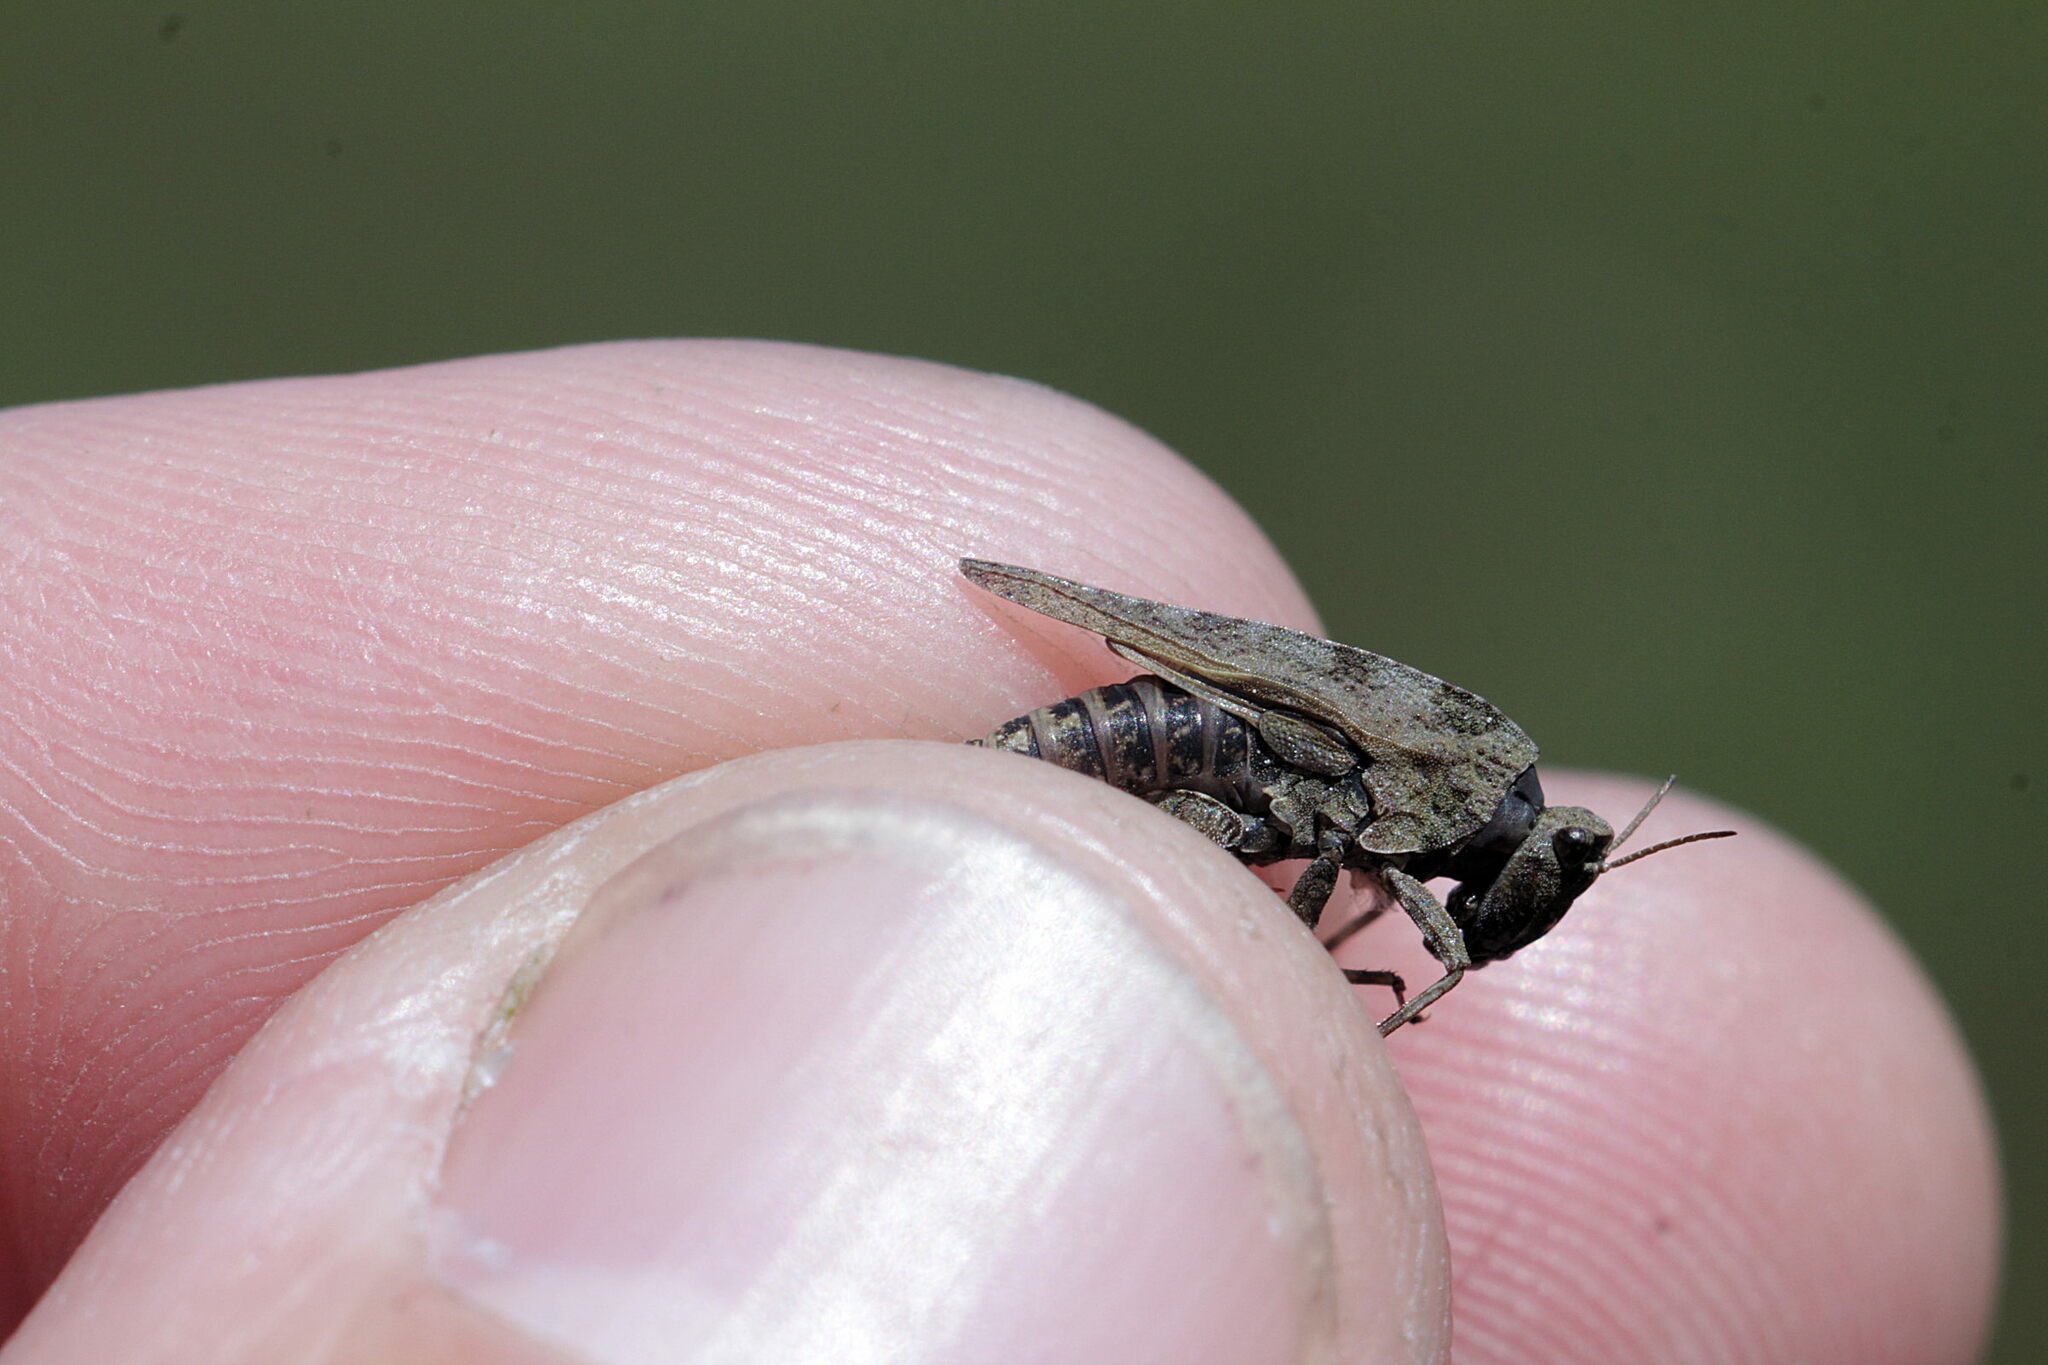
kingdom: Animalia
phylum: Arthropoda
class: Insecta
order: Orthoptera
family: Tetrigidae
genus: Tetrix
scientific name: Tetrix undulata
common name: Common groundhopper
